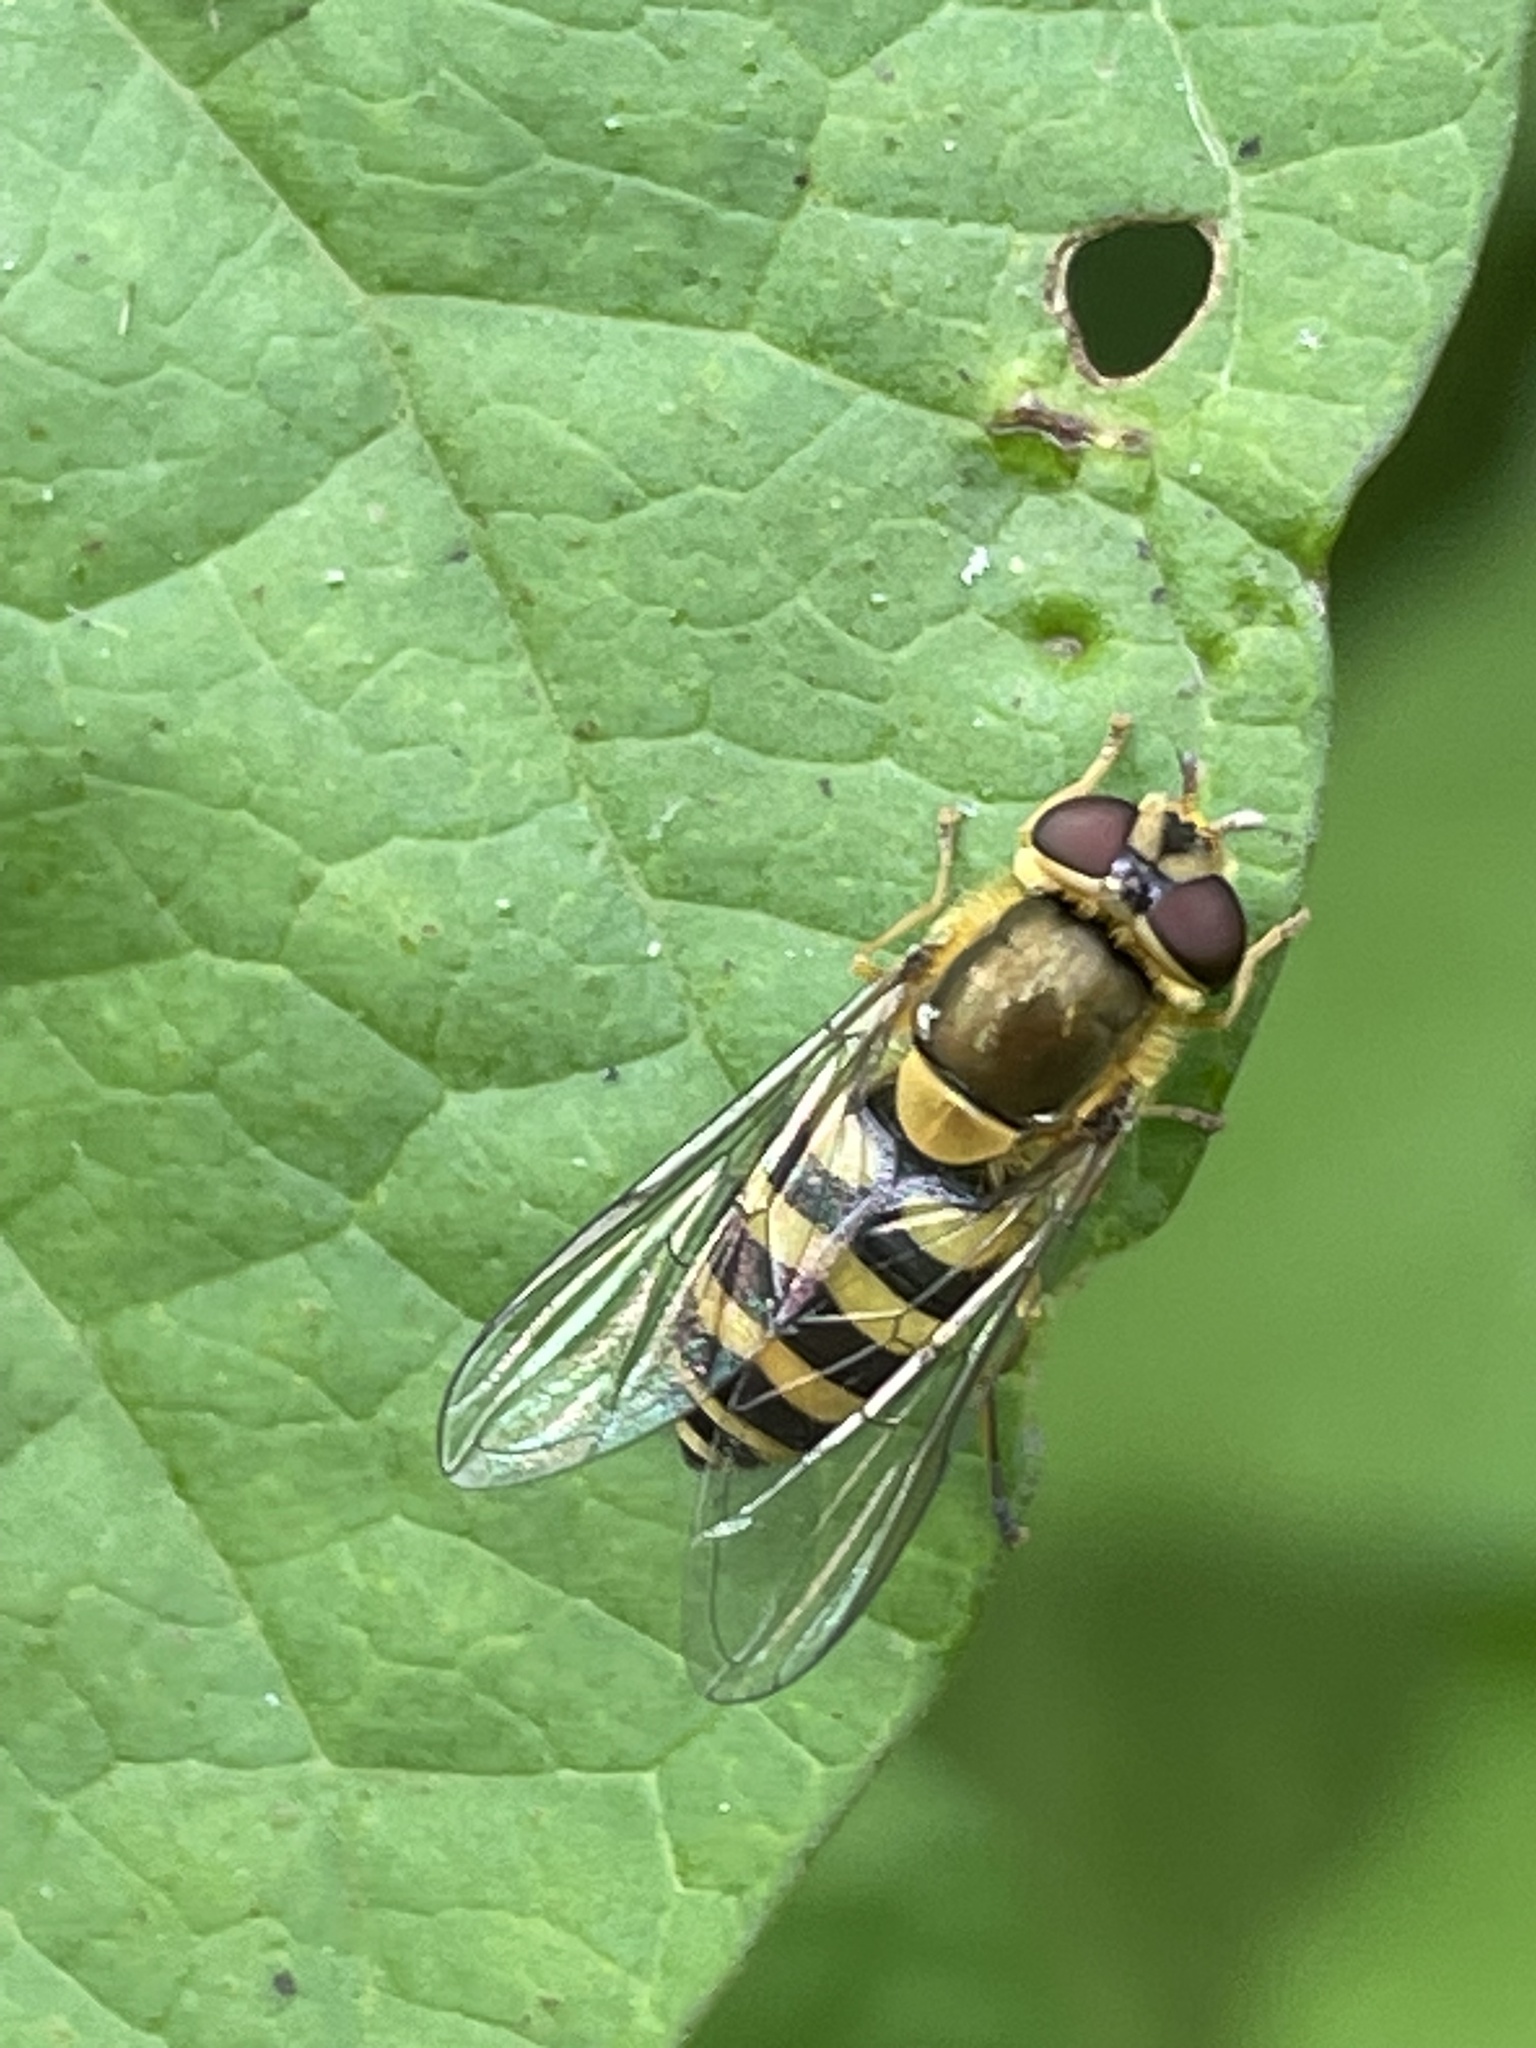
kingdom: Animalia
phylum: Arthropoda
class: Insecta
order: Diptera
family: Syrphidae
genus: Syrphus
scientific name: Syrphus
